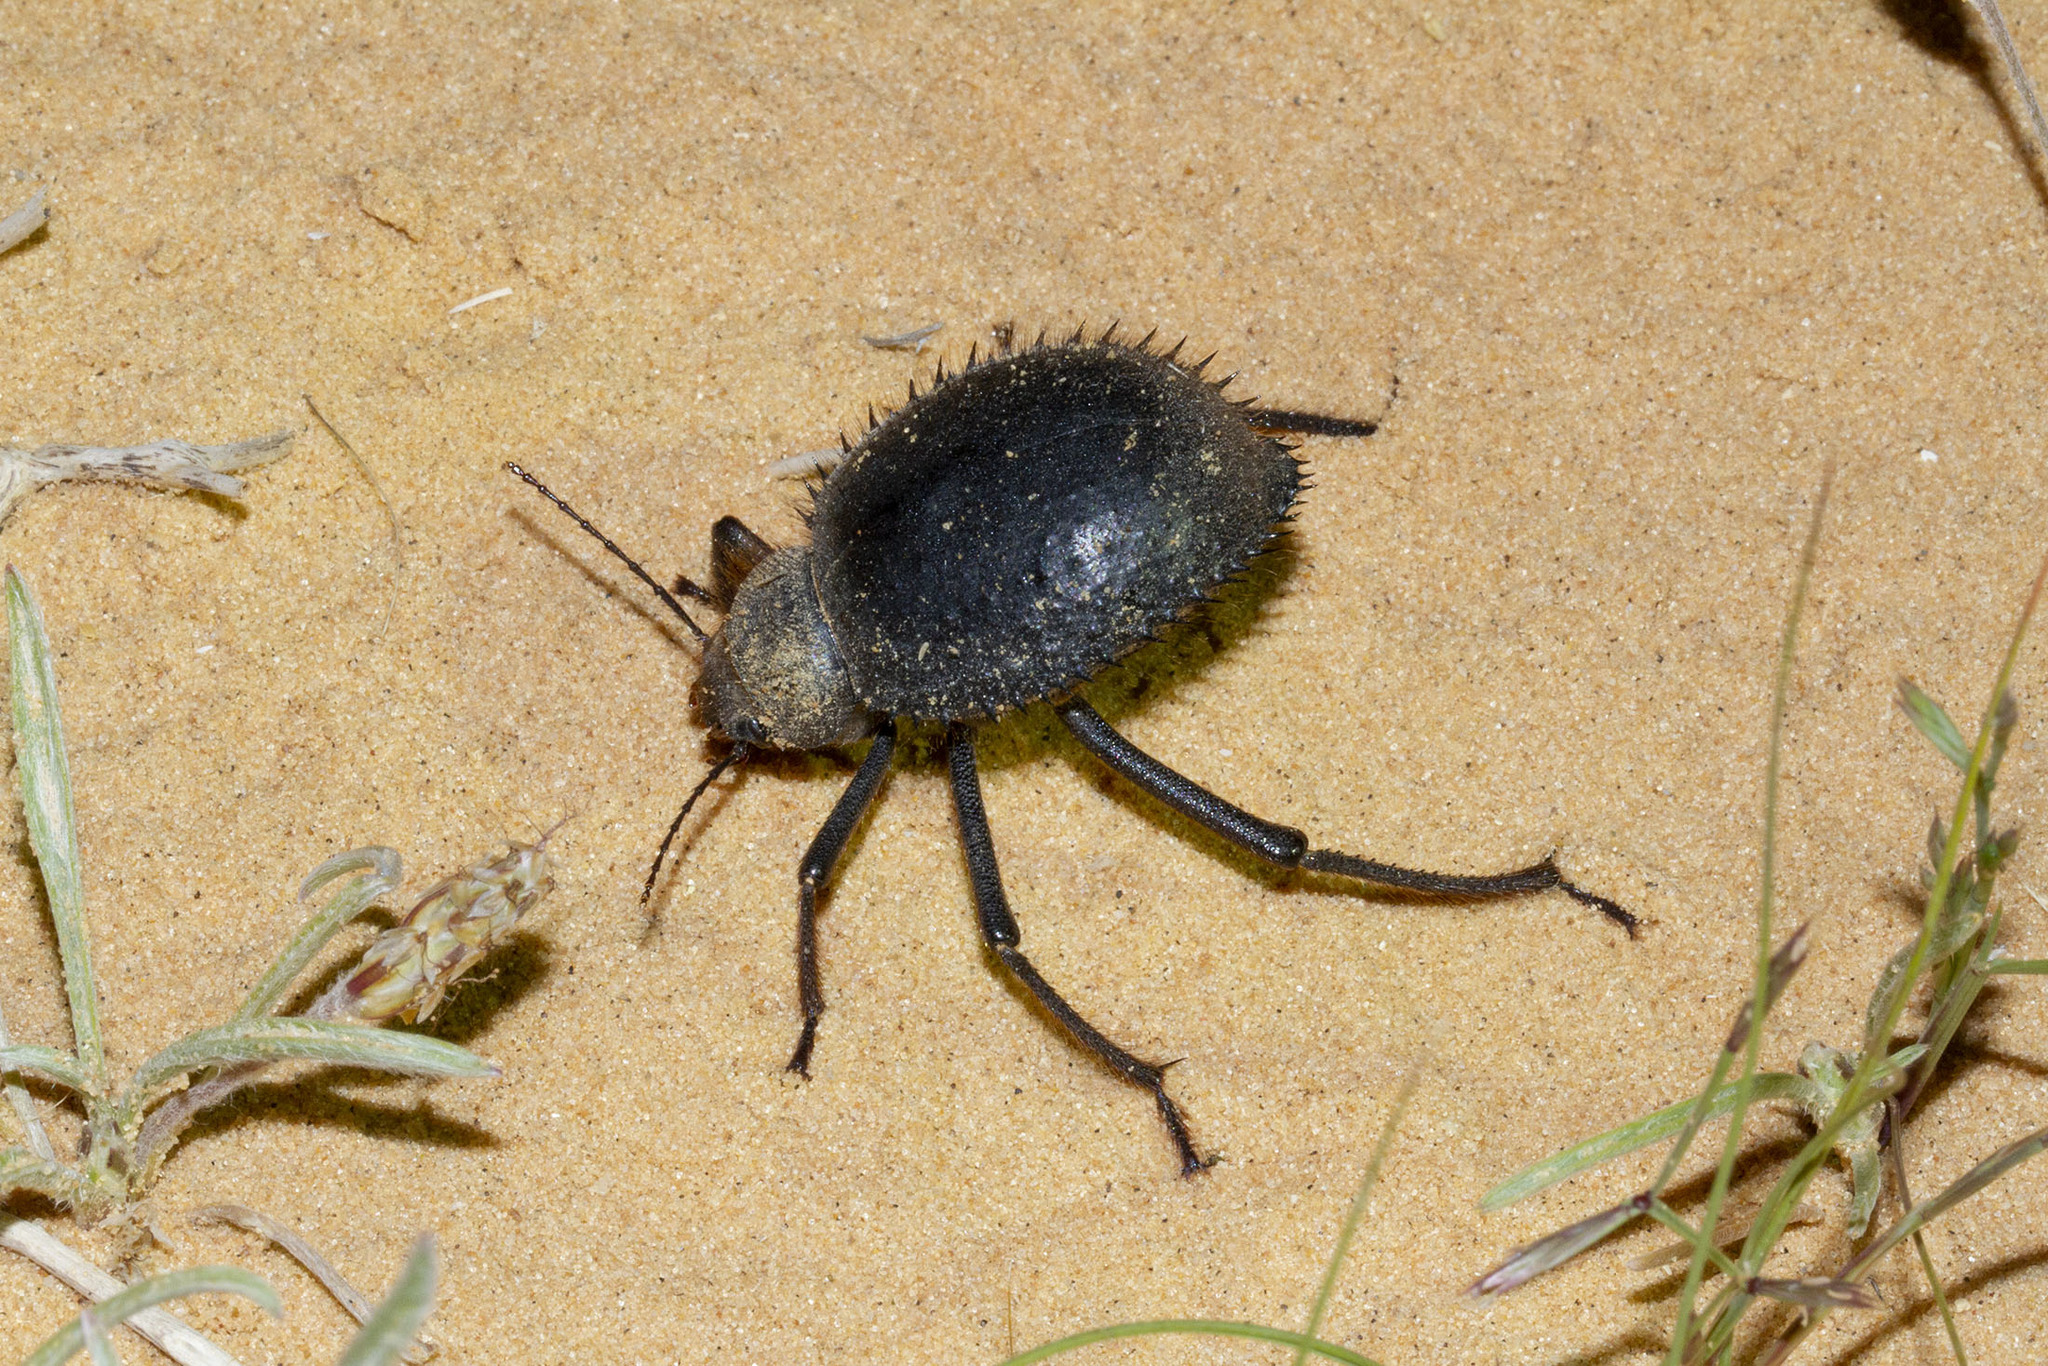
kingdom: Animalia
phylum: Arthropoda
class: Insecta
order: Coleoptera
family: Tenebrionidae
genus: Prionotheca
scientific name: Prionotheca coronata
